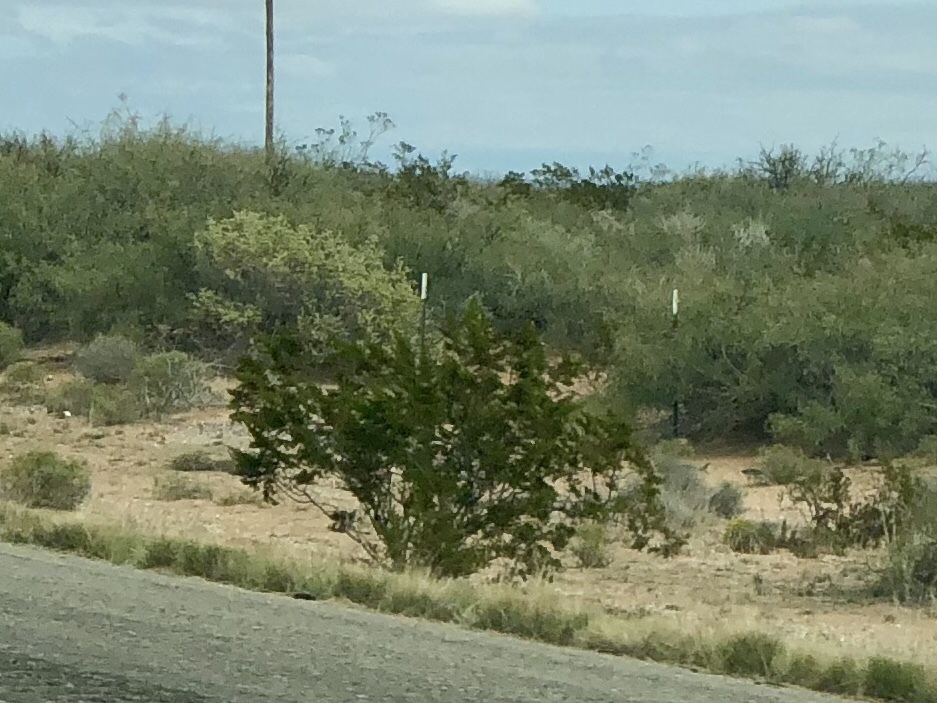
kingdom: Plantae
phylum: Tracheophyta
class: Magnoliopsida
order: Zygophyllales
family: Zygophyllaceae
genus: Larrea
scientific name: Larrea tridentata
